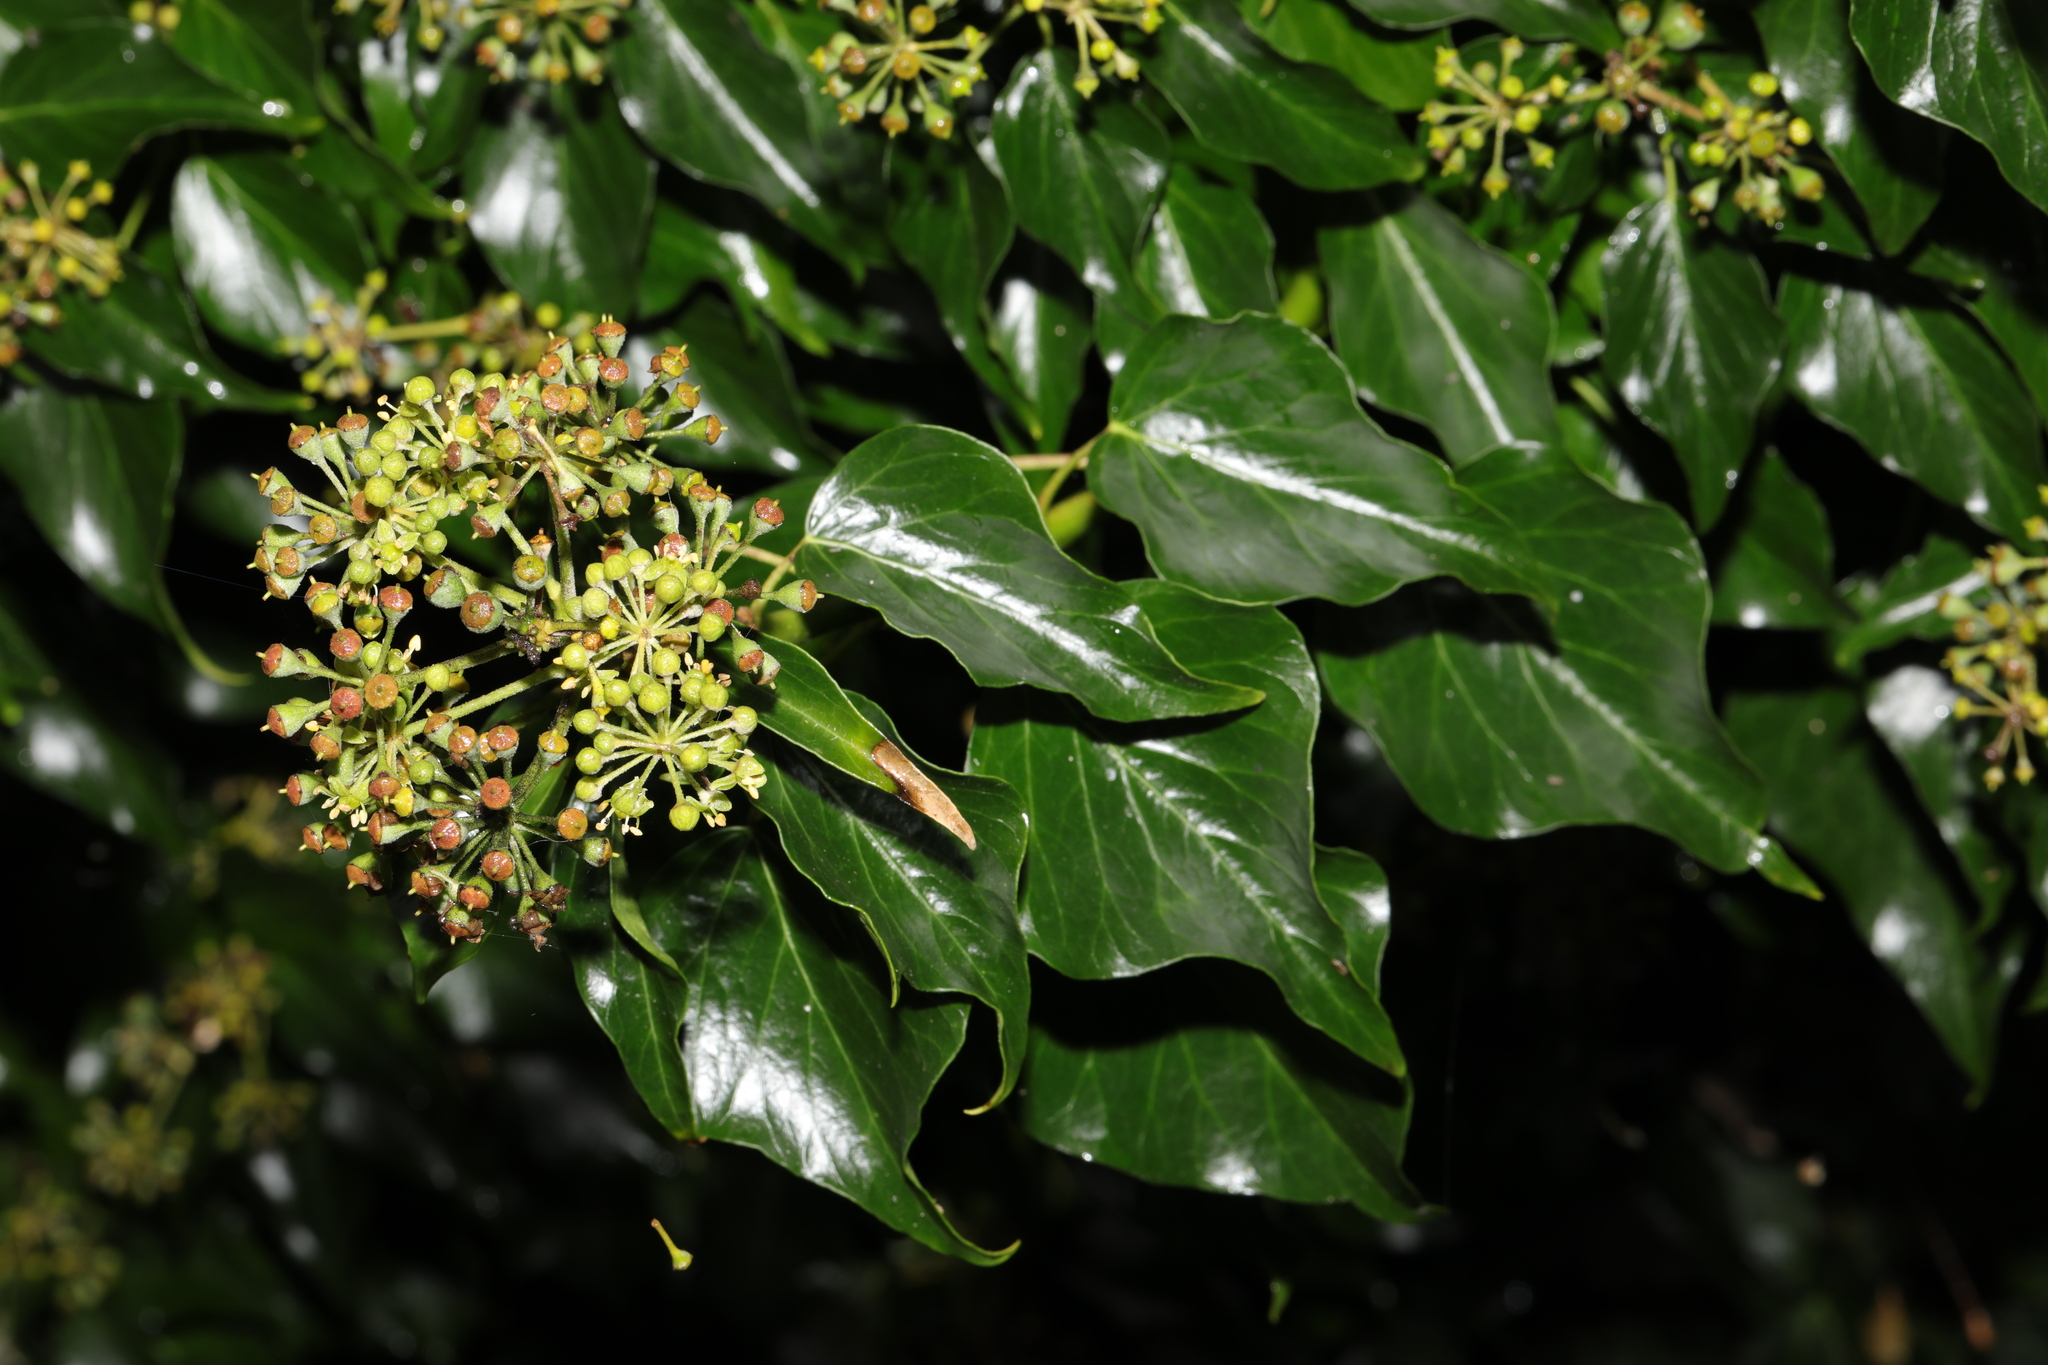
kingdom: Plantae
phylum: Tracheophyta
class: Magnoliopsida
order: Apiales
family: Araliaceae
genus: Hedera
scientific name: Hedera helix
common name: Ivy
